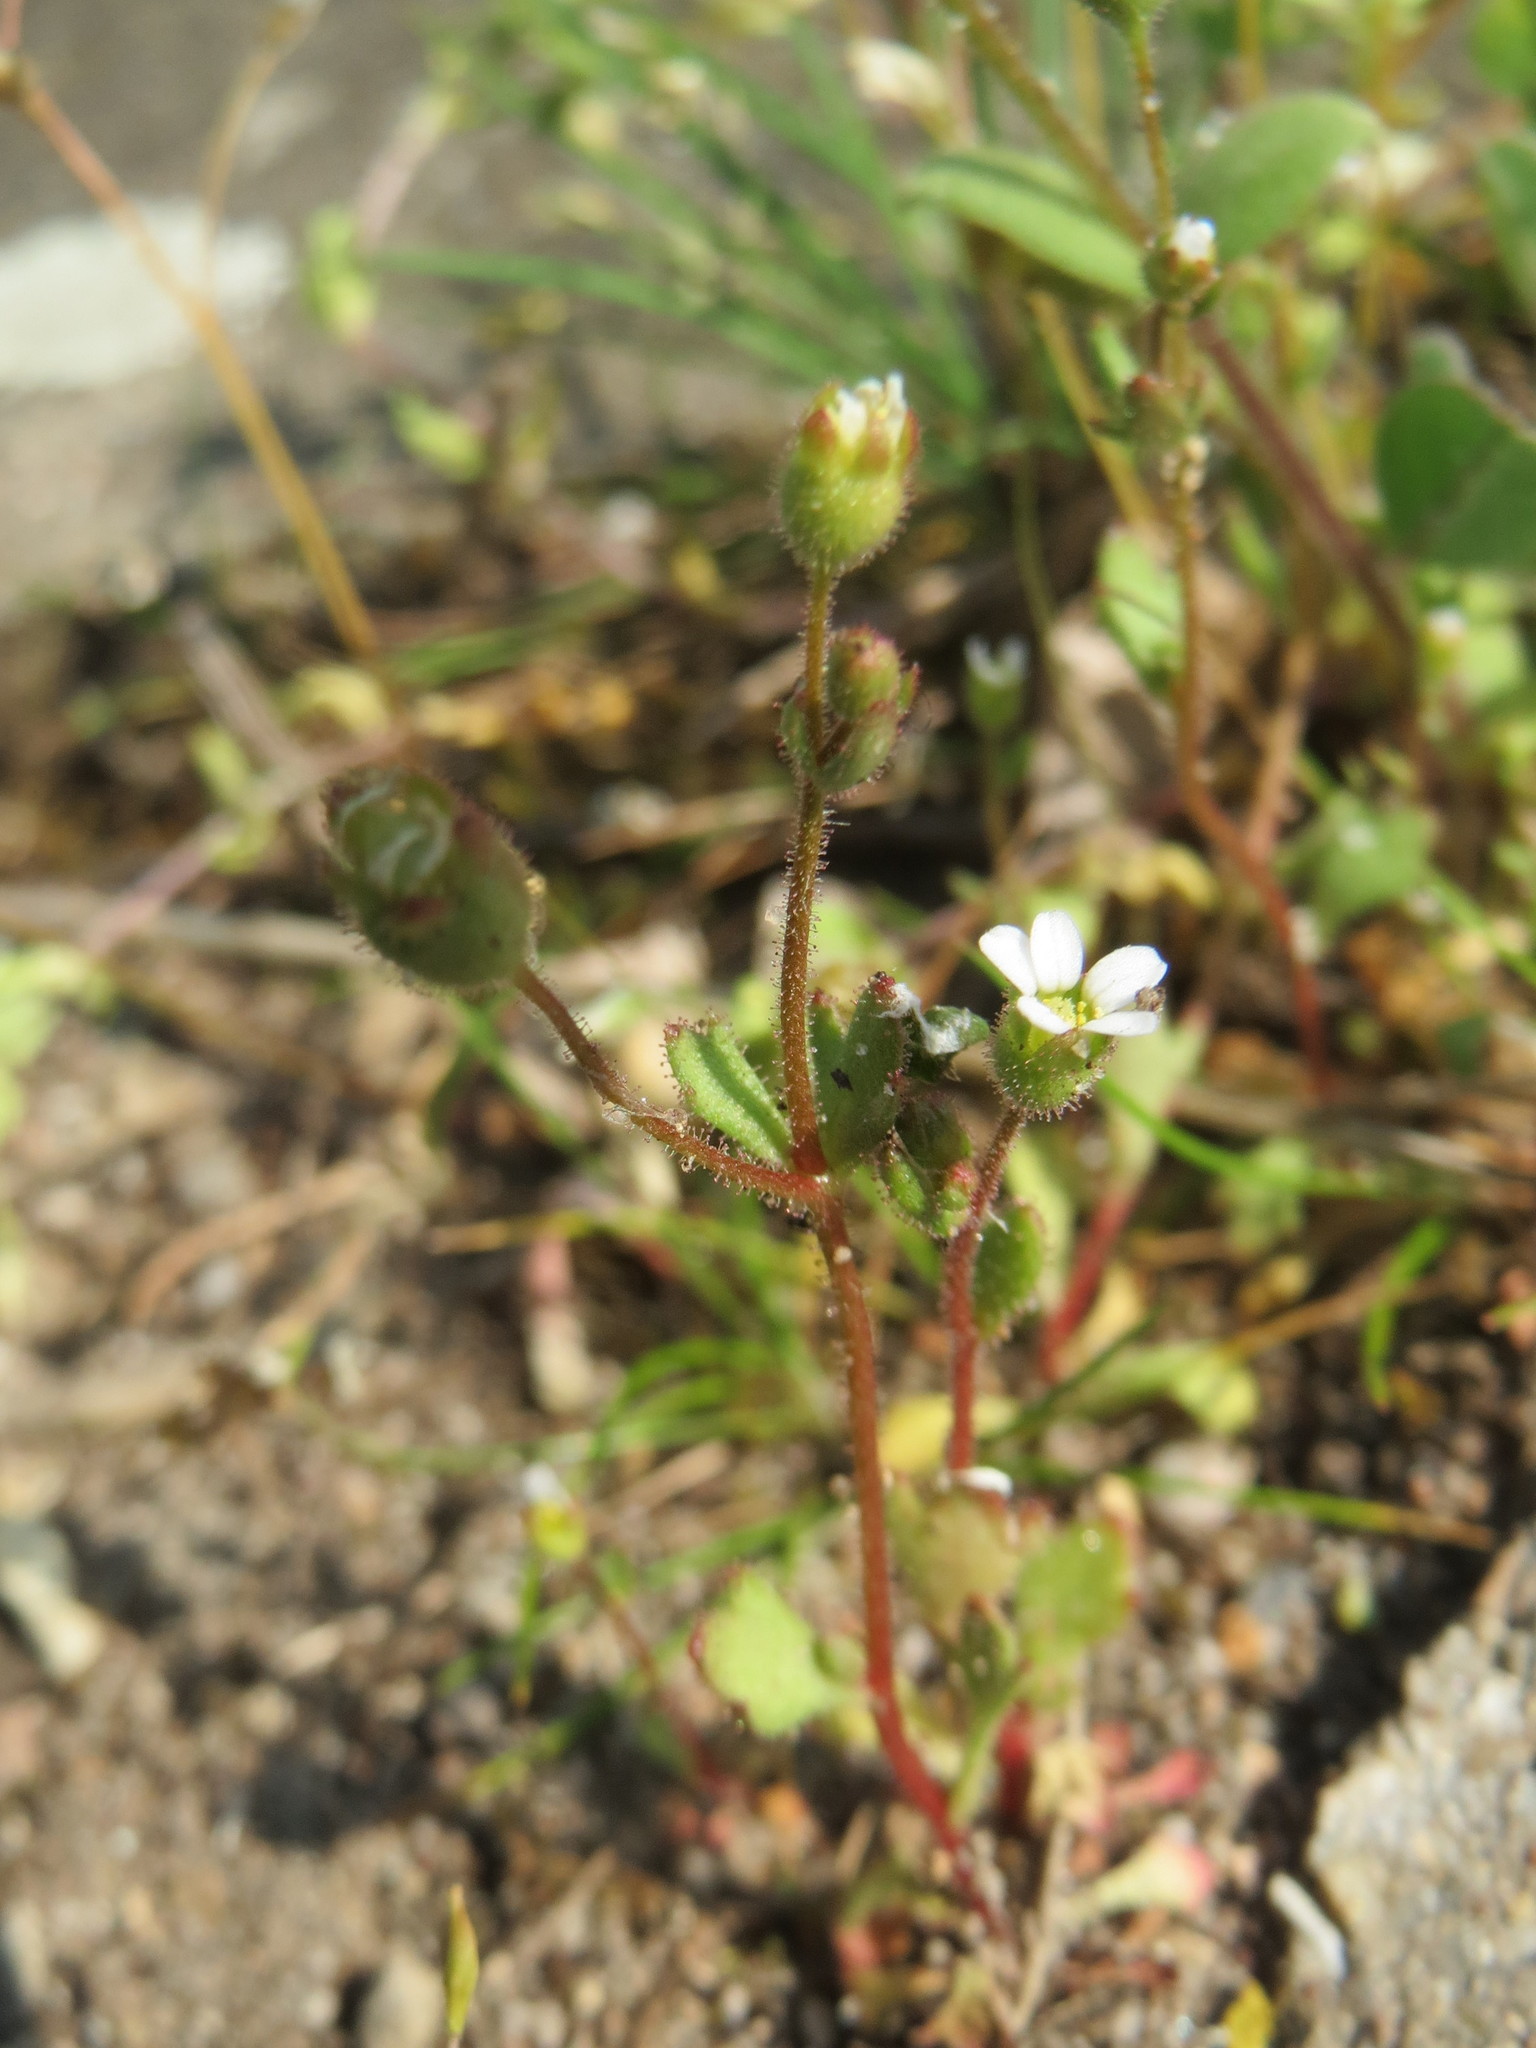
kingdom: Plantae
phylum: Tracheophyta
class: Magnoliopsida
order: Saxifragales
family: Saxifragaceae
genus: Saxifraga
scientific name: Saxifraga tridactylites
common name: Rue-leaved saxifrage
